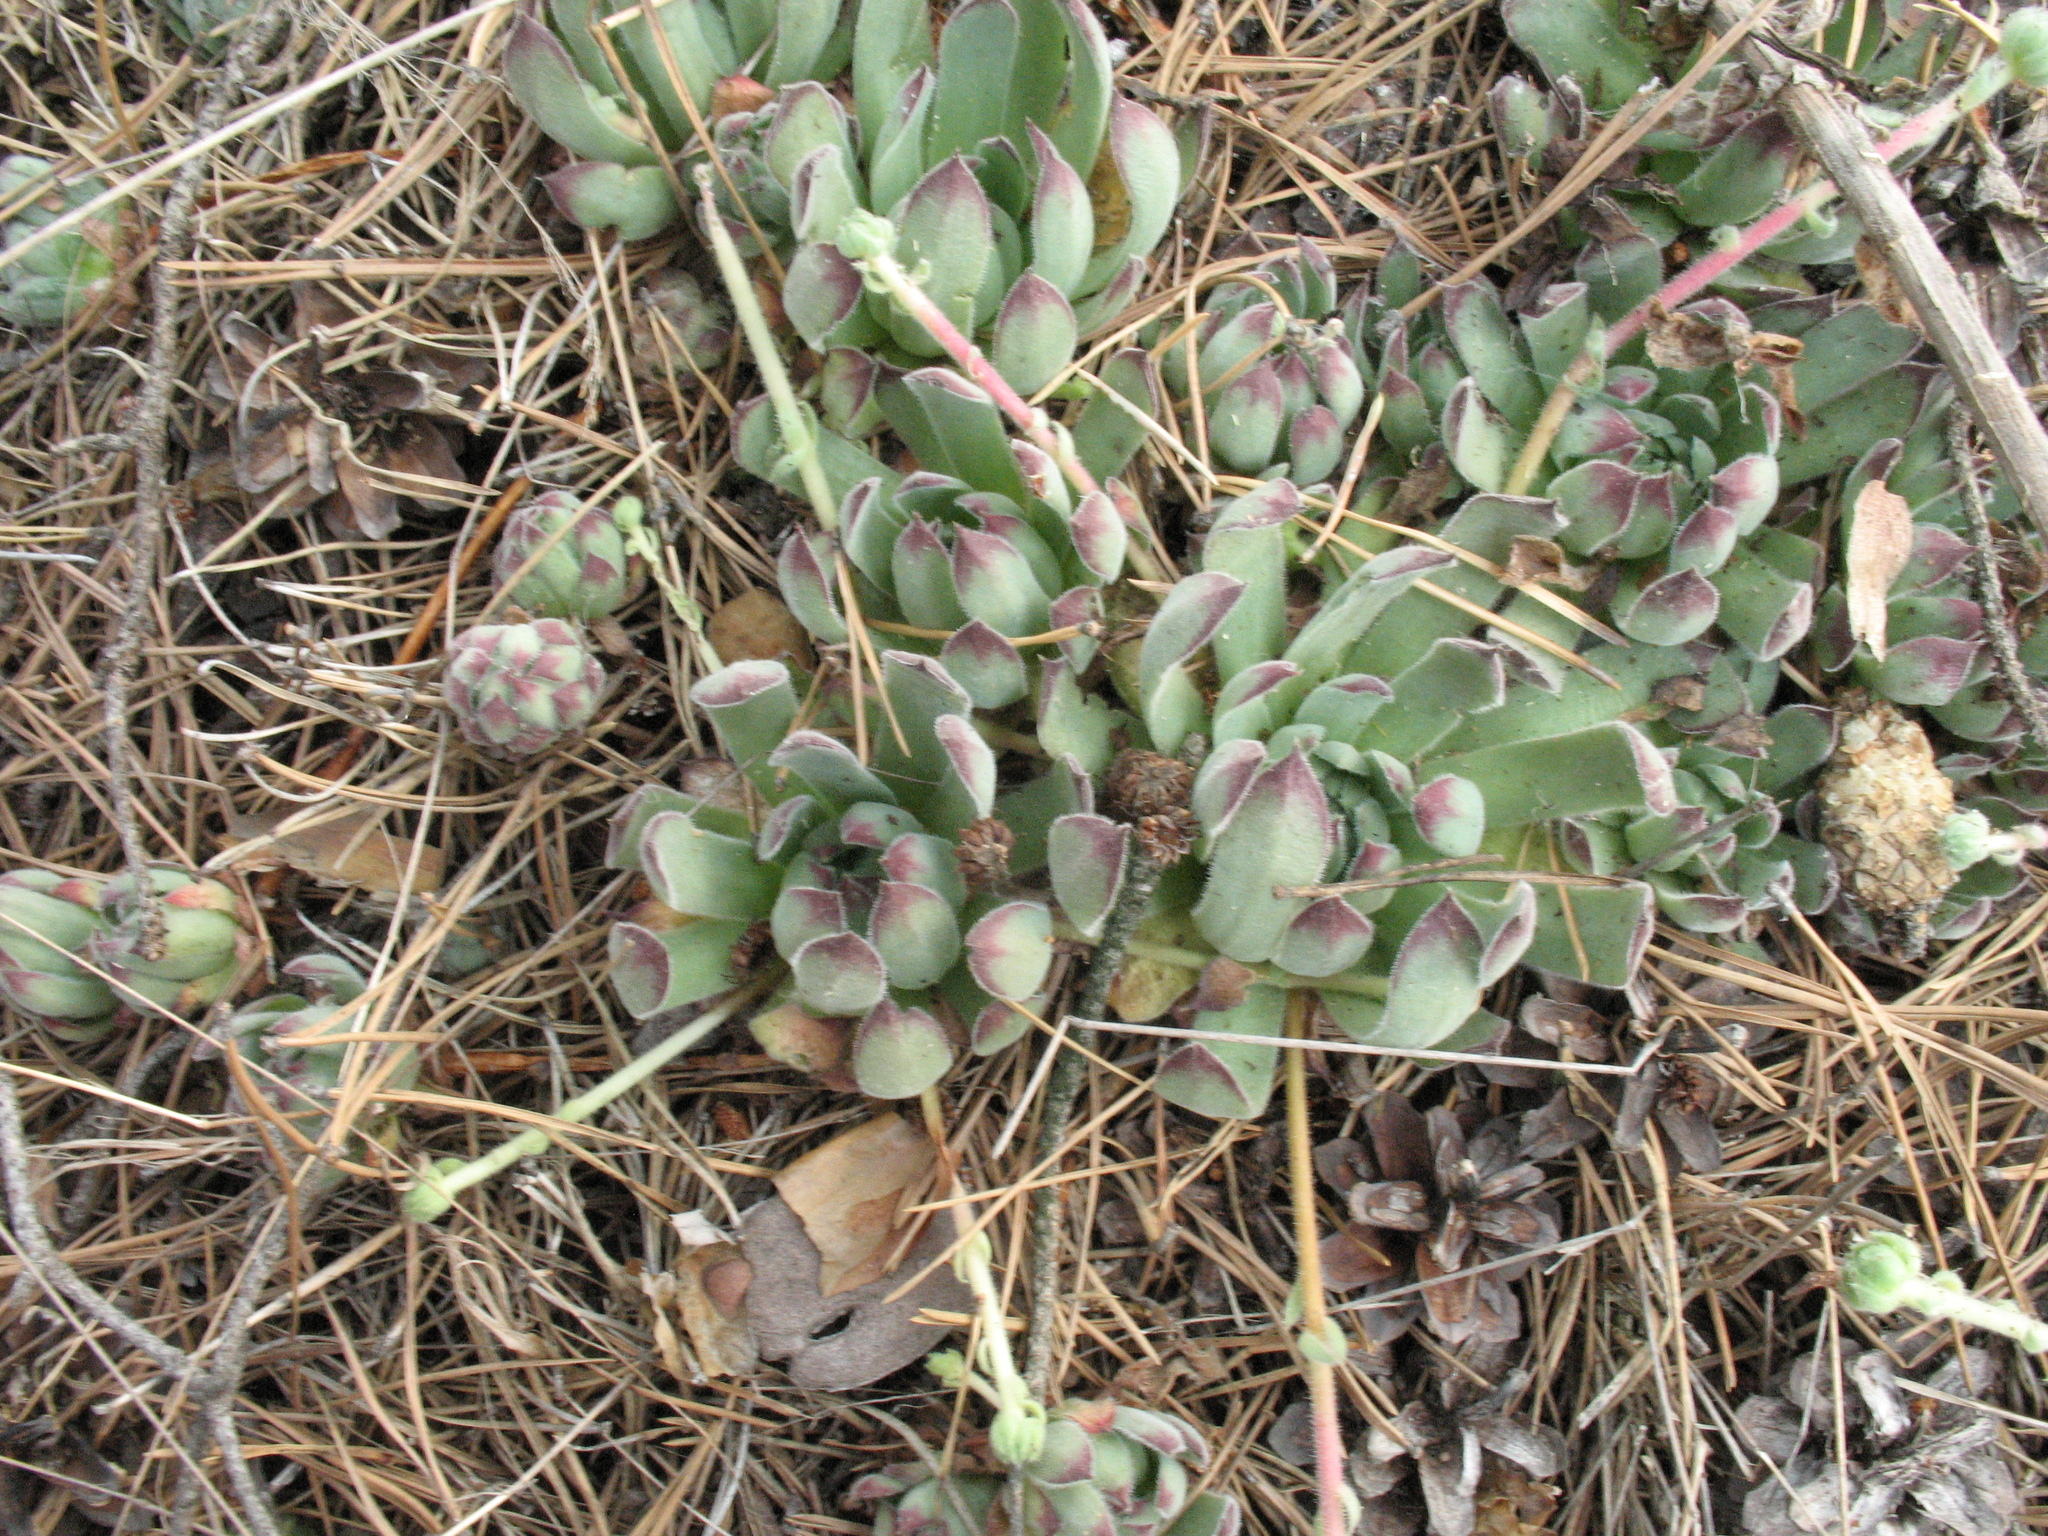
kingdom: Plantae
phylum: Tracheophyta
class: Magnoliopsida
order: Saxifragales
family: Crassulaceae
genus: Sempervivum
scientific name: Sempervivum ruthenicum
